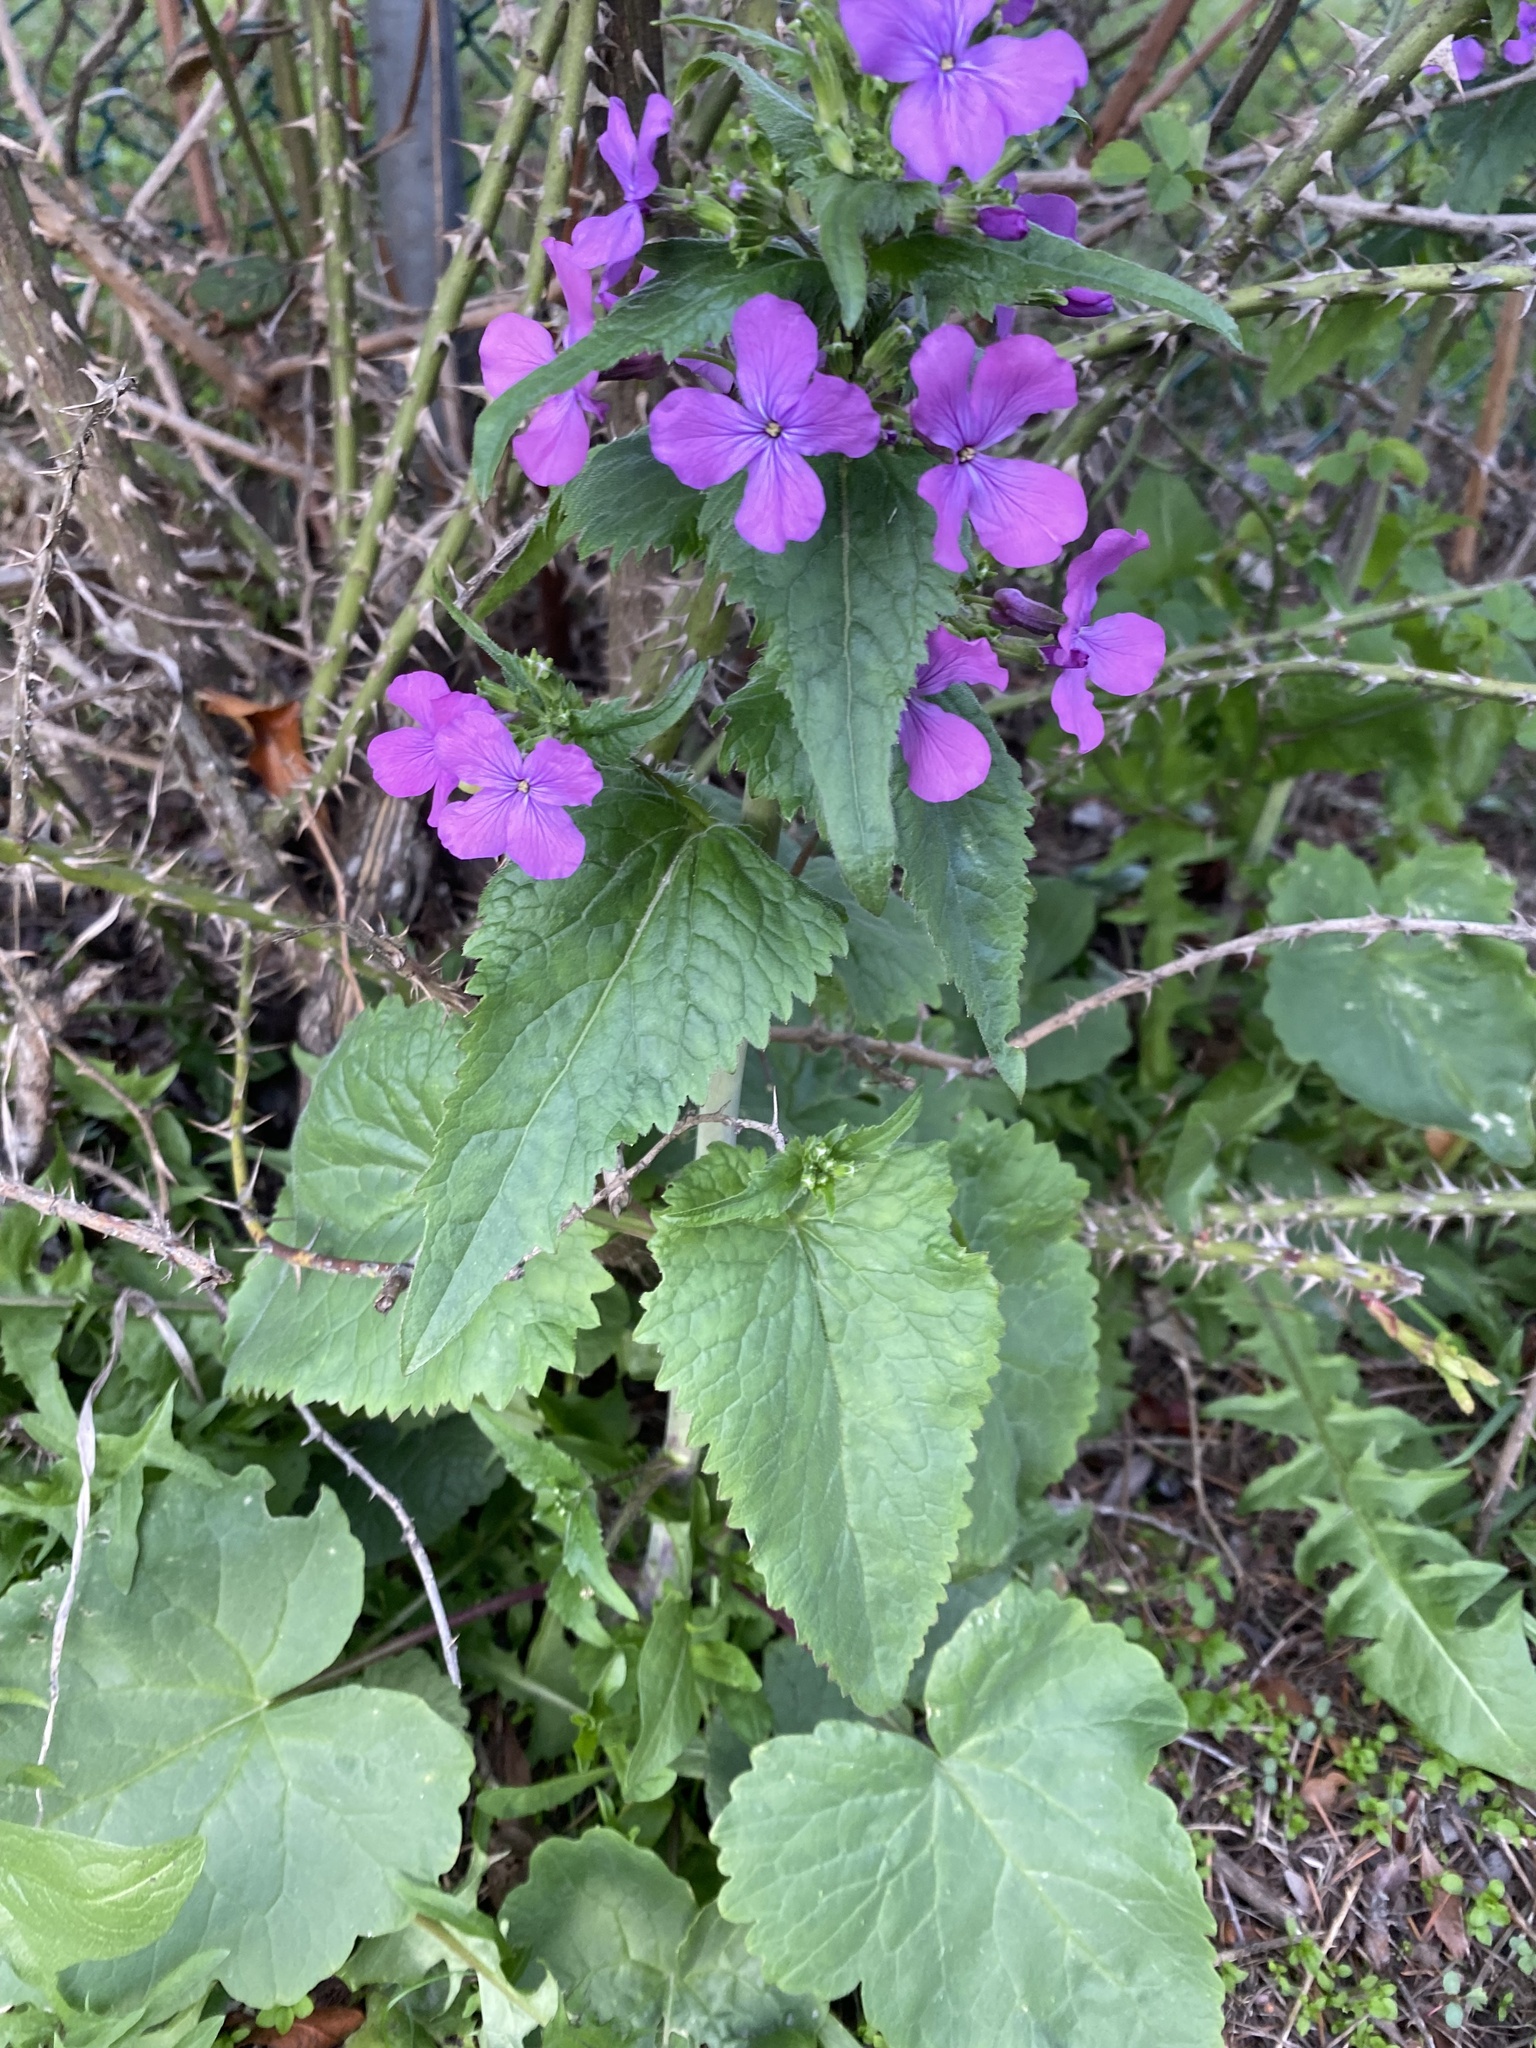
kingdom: Plantae
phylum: Tracheophyta
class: Magnoliopsida
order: Brassicales
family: Brassicaceae
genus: Lunaria
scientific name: Lunaria annua
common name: Honesty
